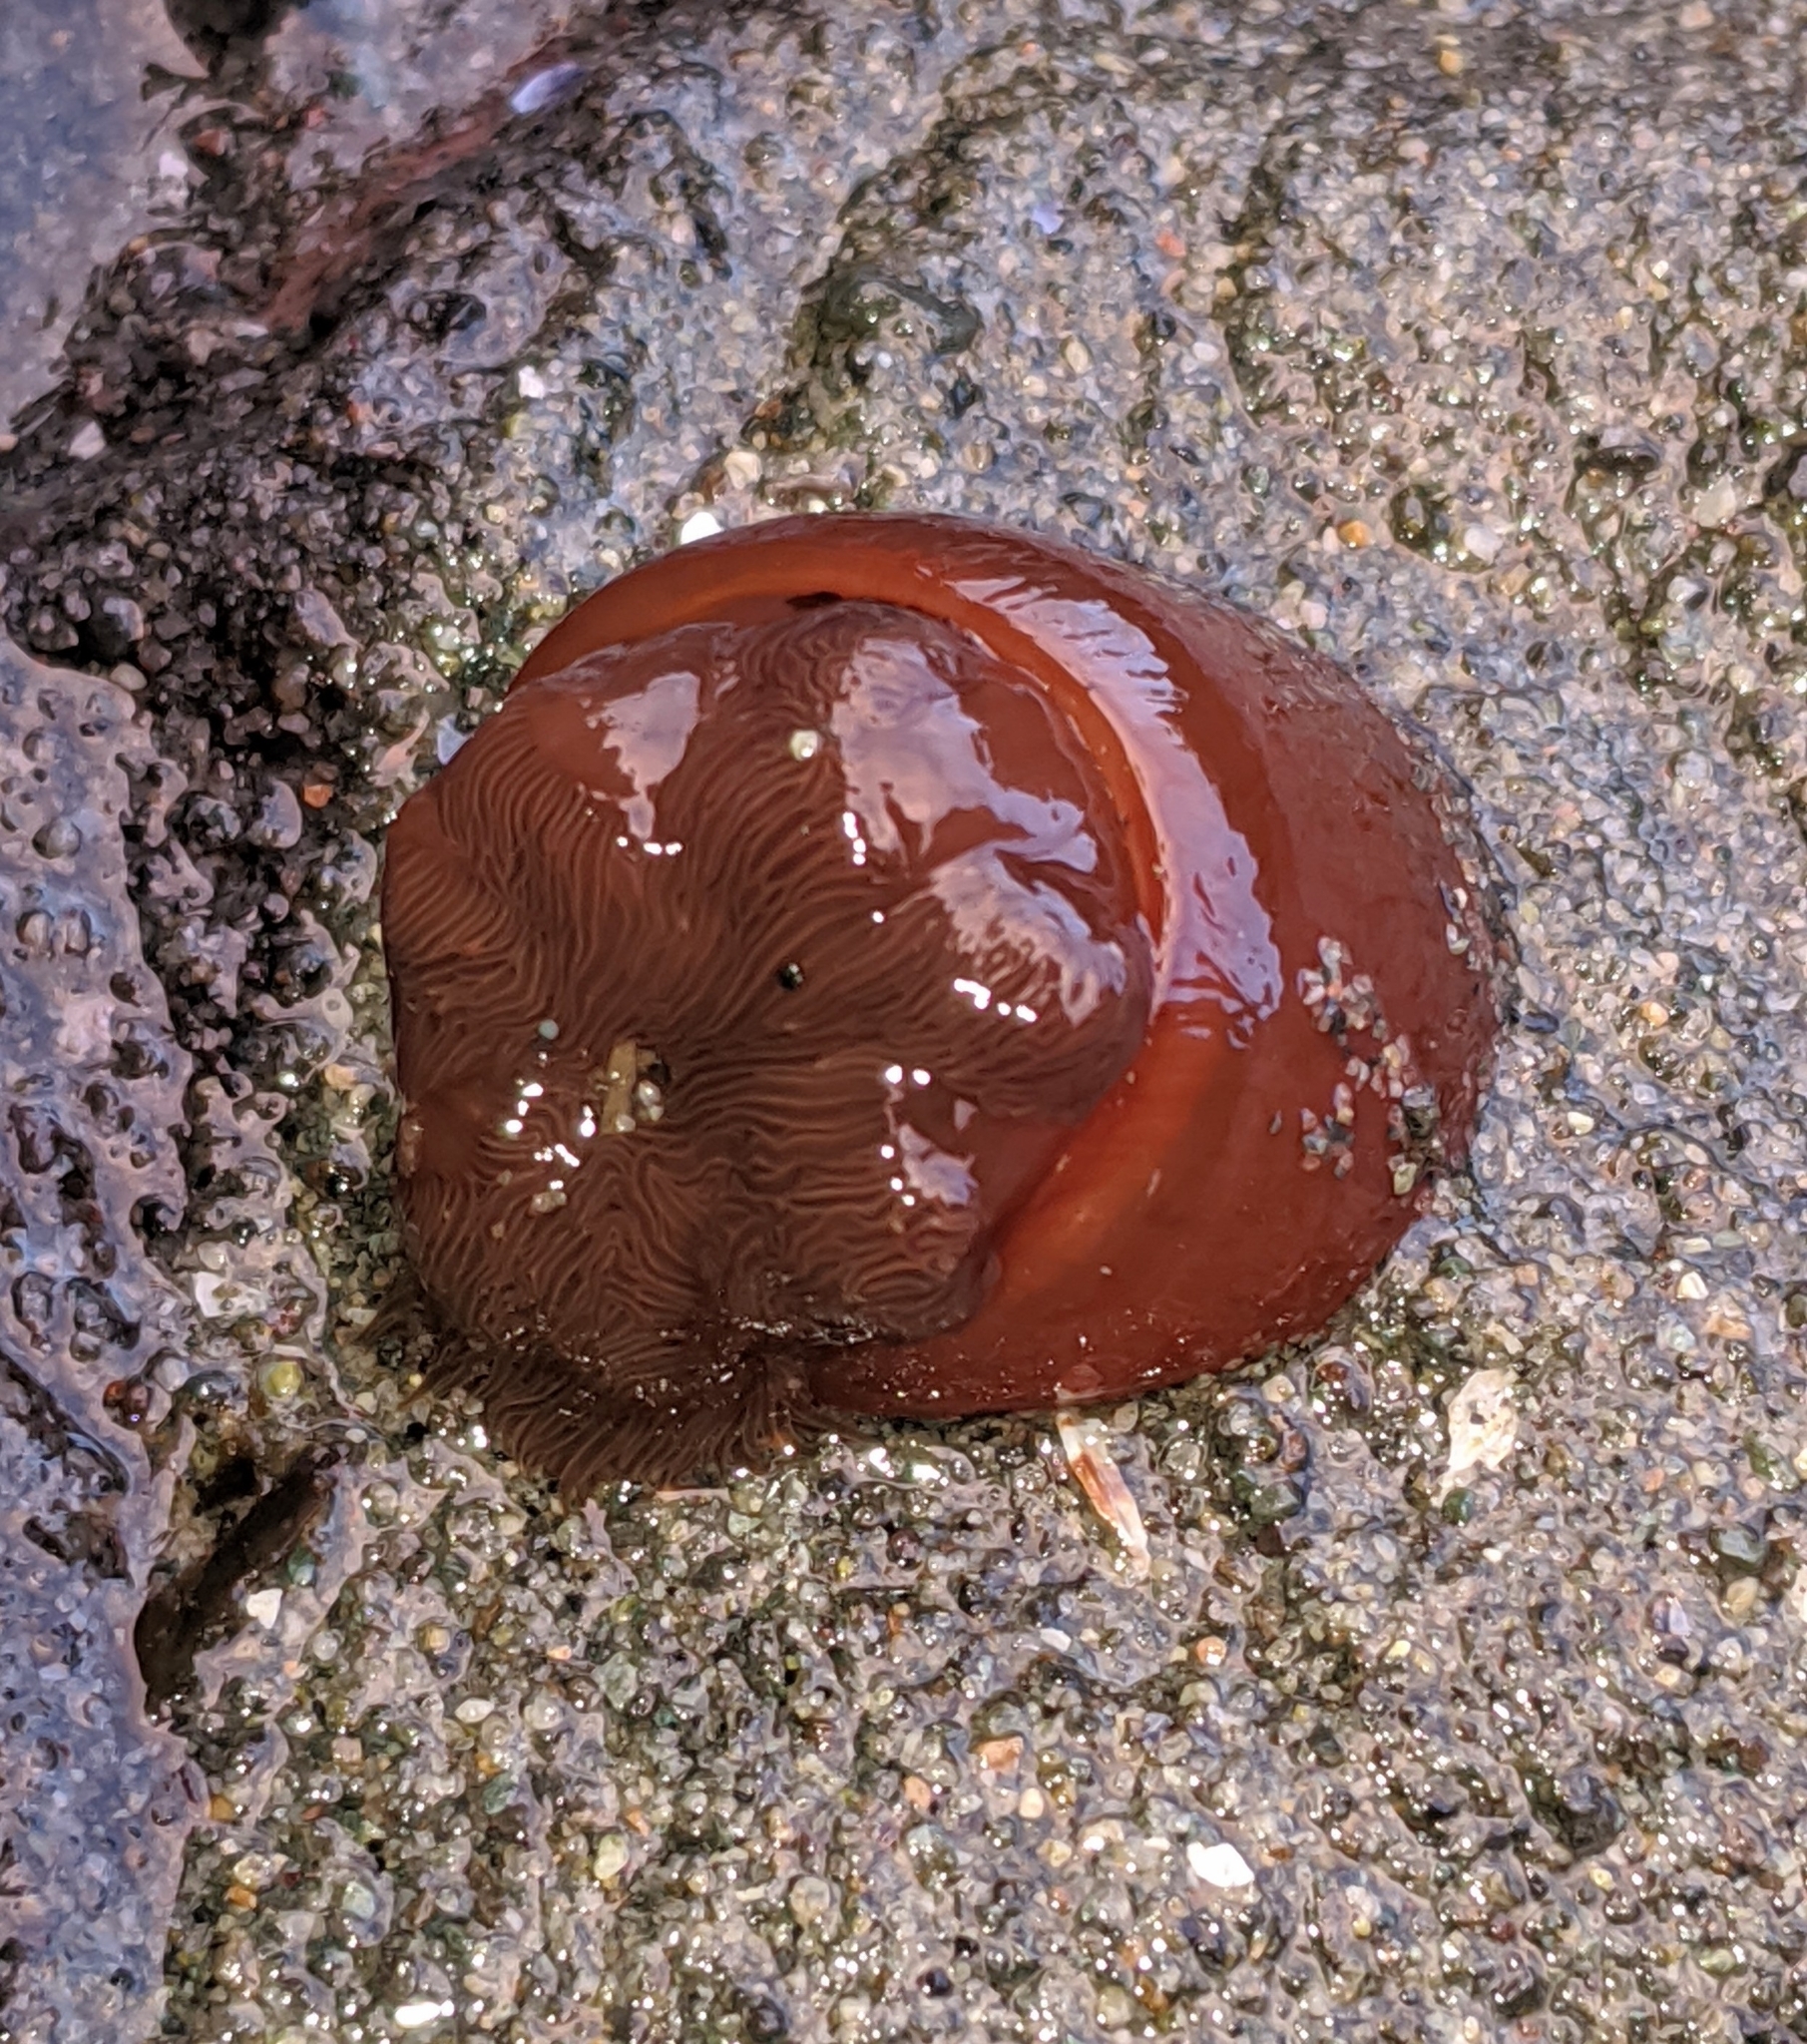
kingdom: Animalia
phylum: Cnidaria
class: Anthozoa
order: Actiniaria
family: Metridiidae
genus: Metridium
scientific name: Metridium senile
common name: Clonal plumose anemone
